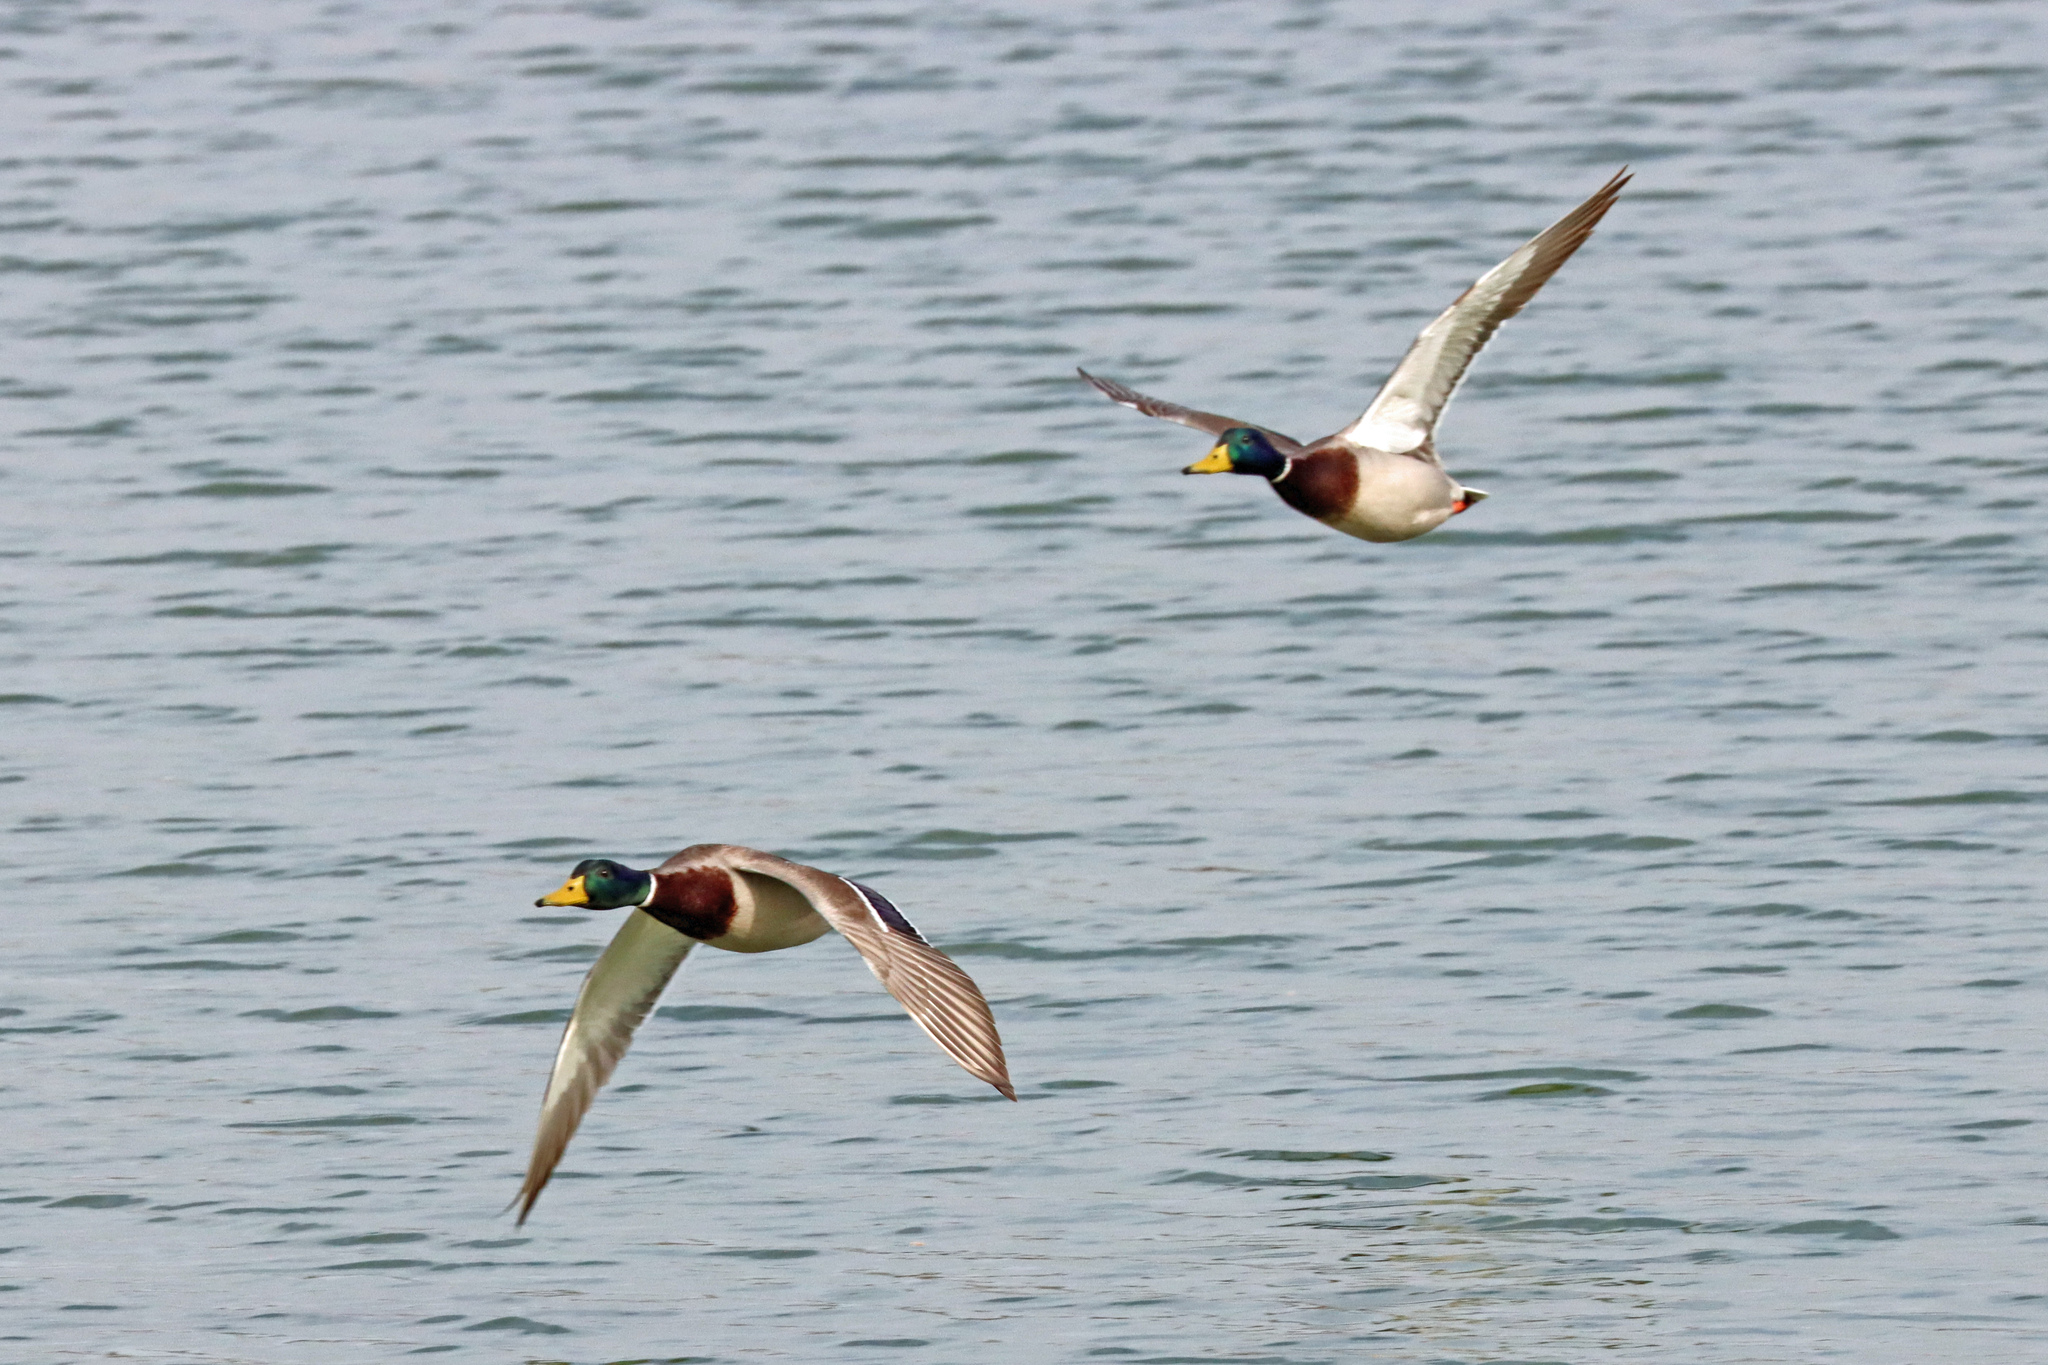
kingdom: Animalia
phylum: Chordata
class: Aves
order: Anseriformes
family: Anatidae
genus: Anas
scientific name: Anas platyrhynchos
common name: Mallard
